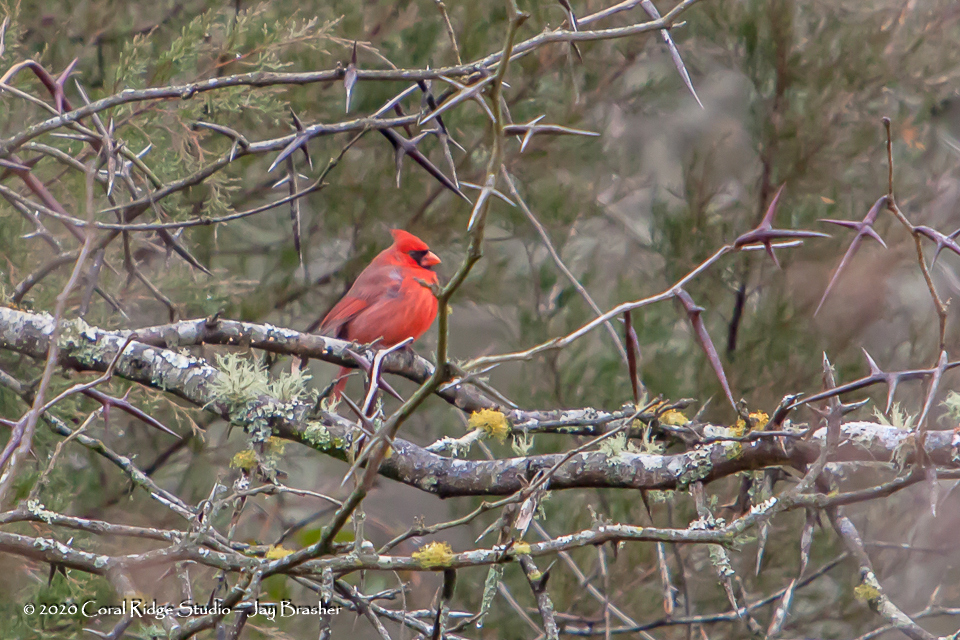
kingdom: Animalia
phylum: Chordata
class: Aves
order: Passeriformes
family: Cardinalidae
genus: Cardinalis
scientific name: Cardinalis cardinalis
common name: Northern cardinal
